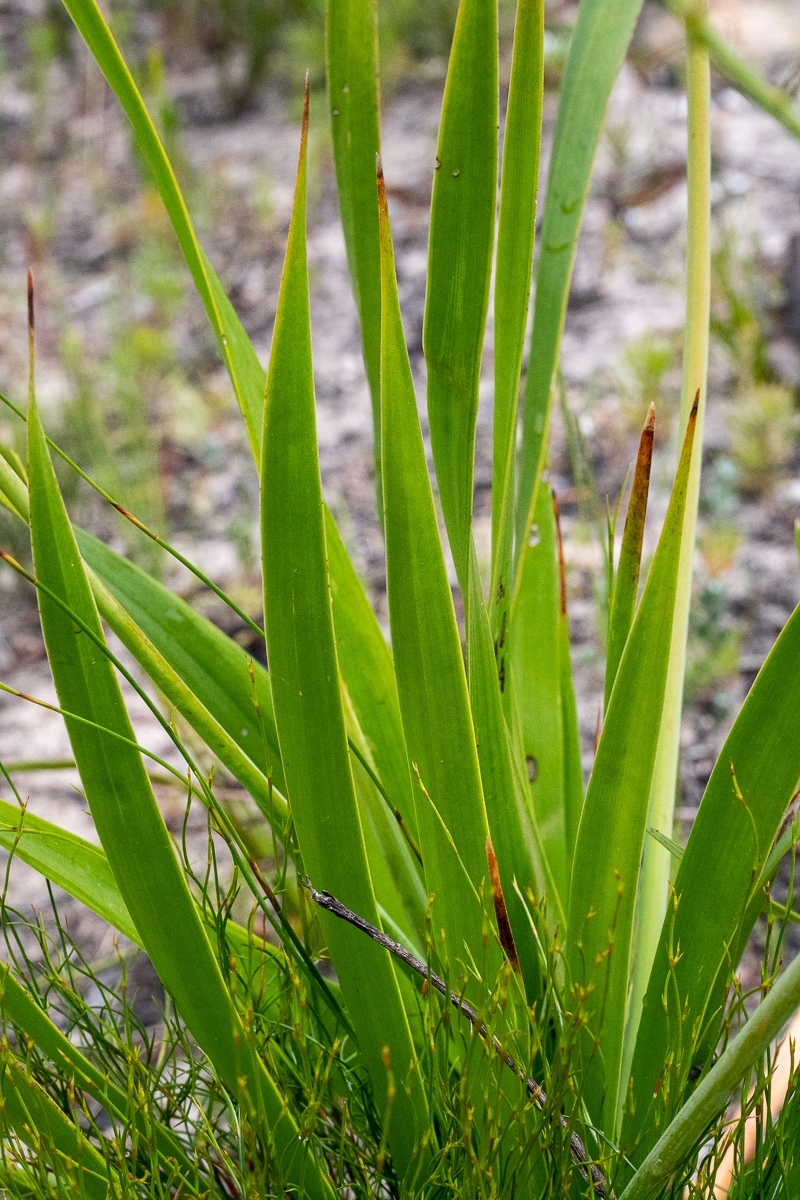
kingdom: Plantae
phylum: Tracheophyta
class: Liliopsida
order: Asparagales
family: Asphodelaceae
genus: Trachyandra
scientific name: Trachyandra hirsuta
